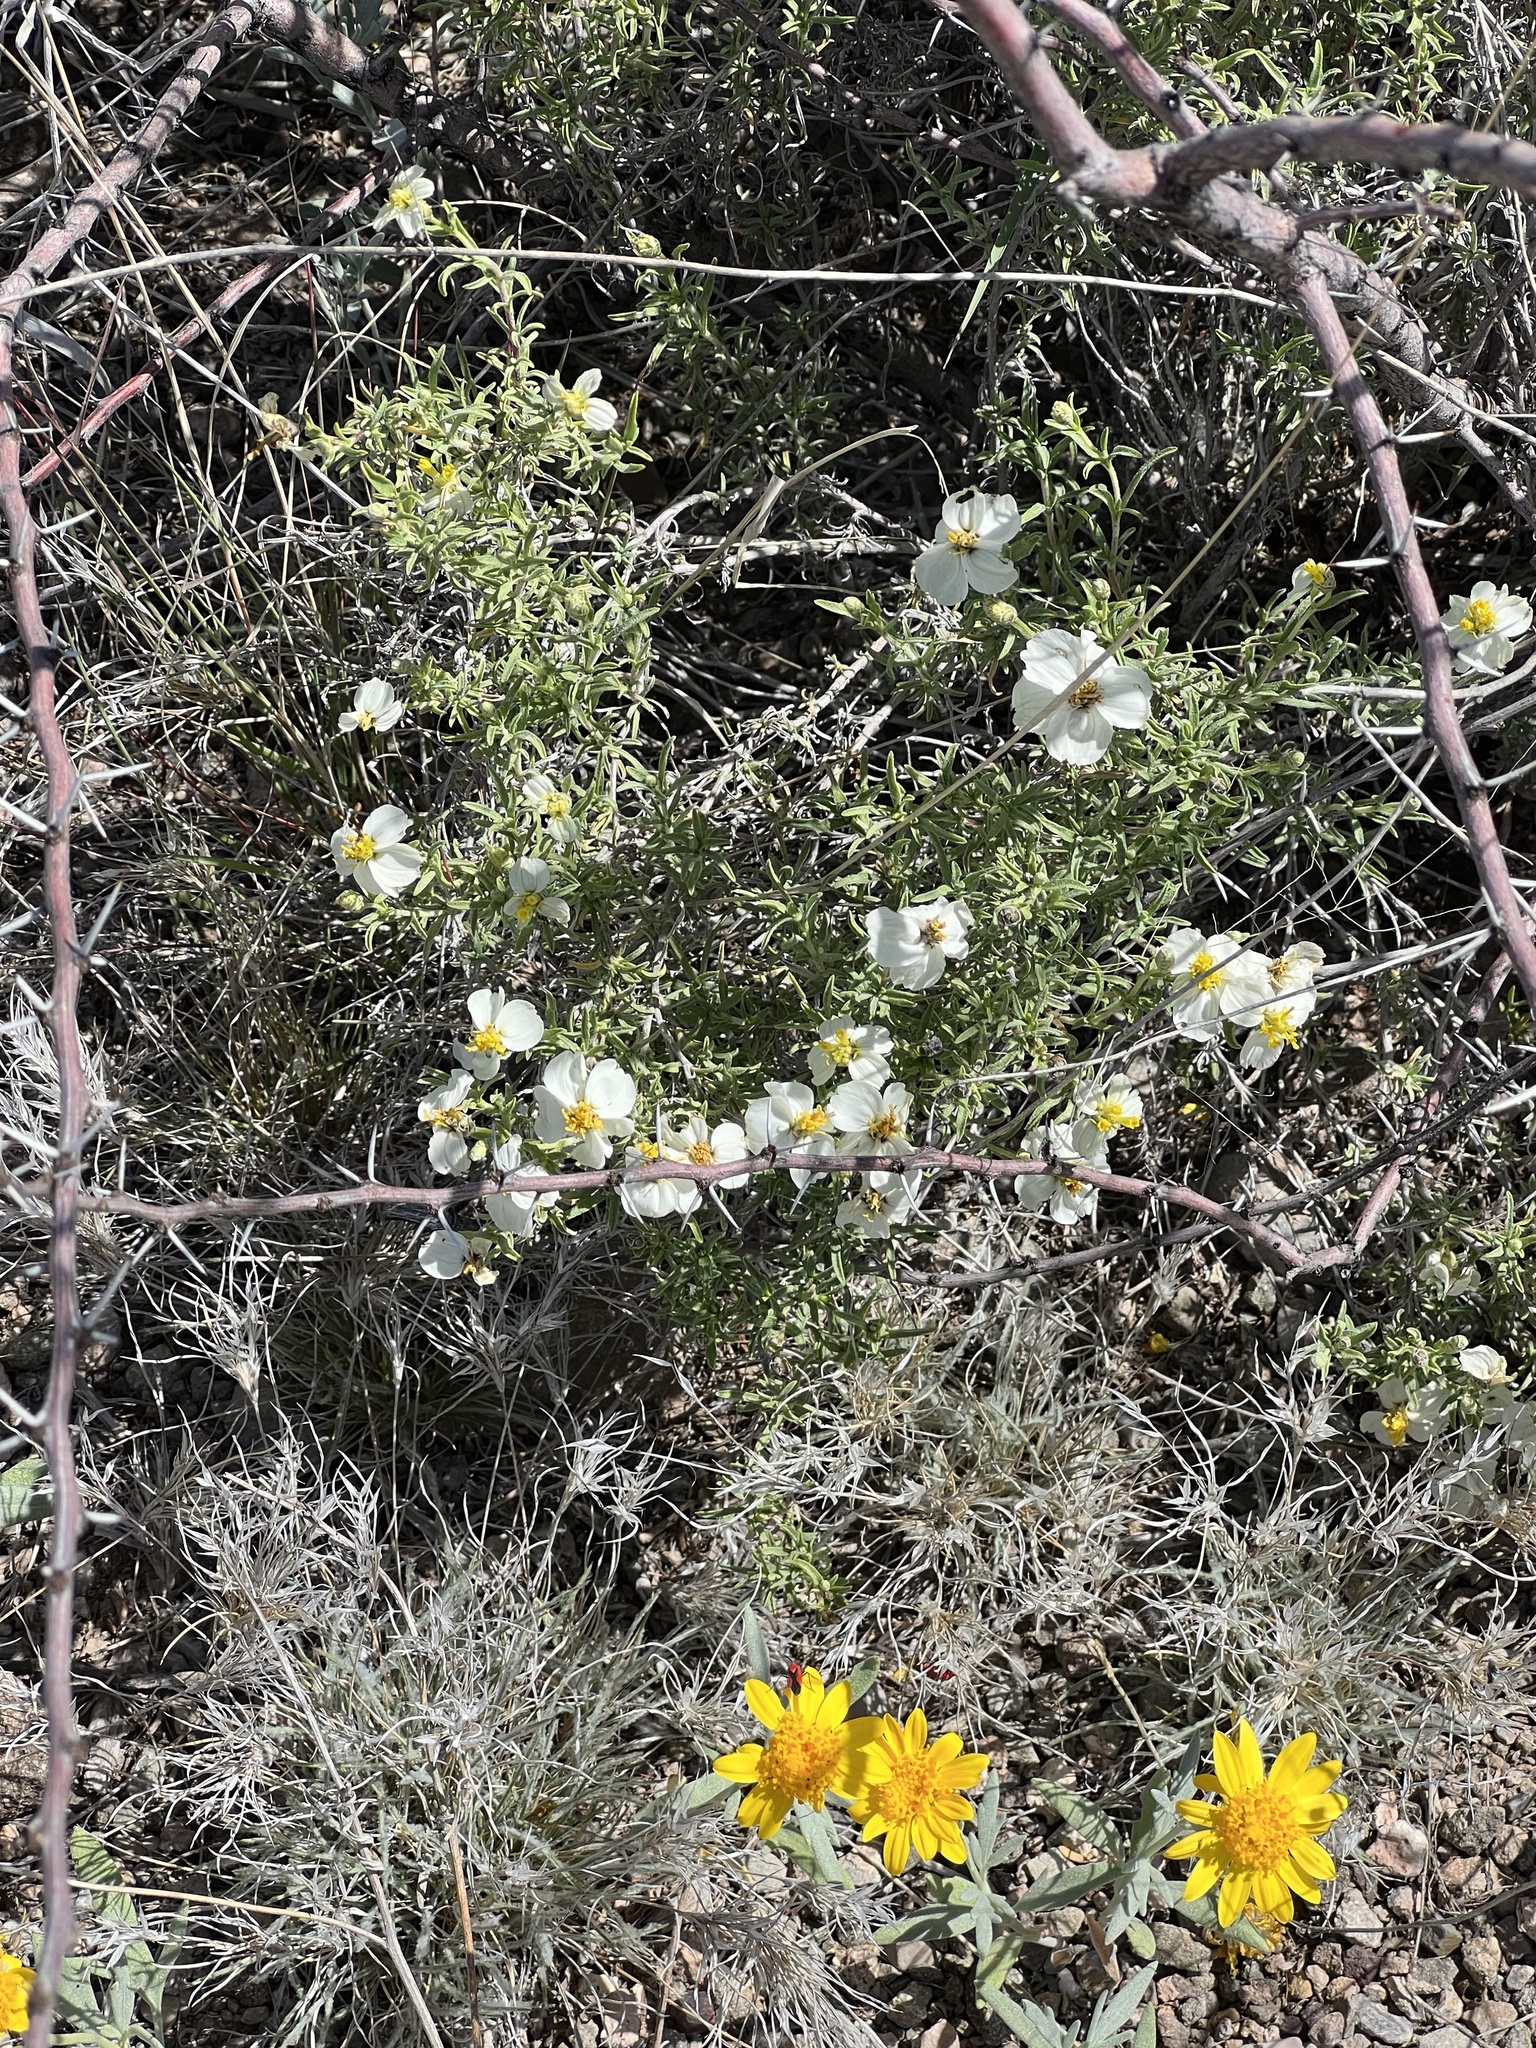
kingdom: Plantae
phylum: Tracheophyta
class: Magnoliopsida
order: Asterales
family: Asteraceae
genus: Zinnia
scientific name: Zinnia acerosa
